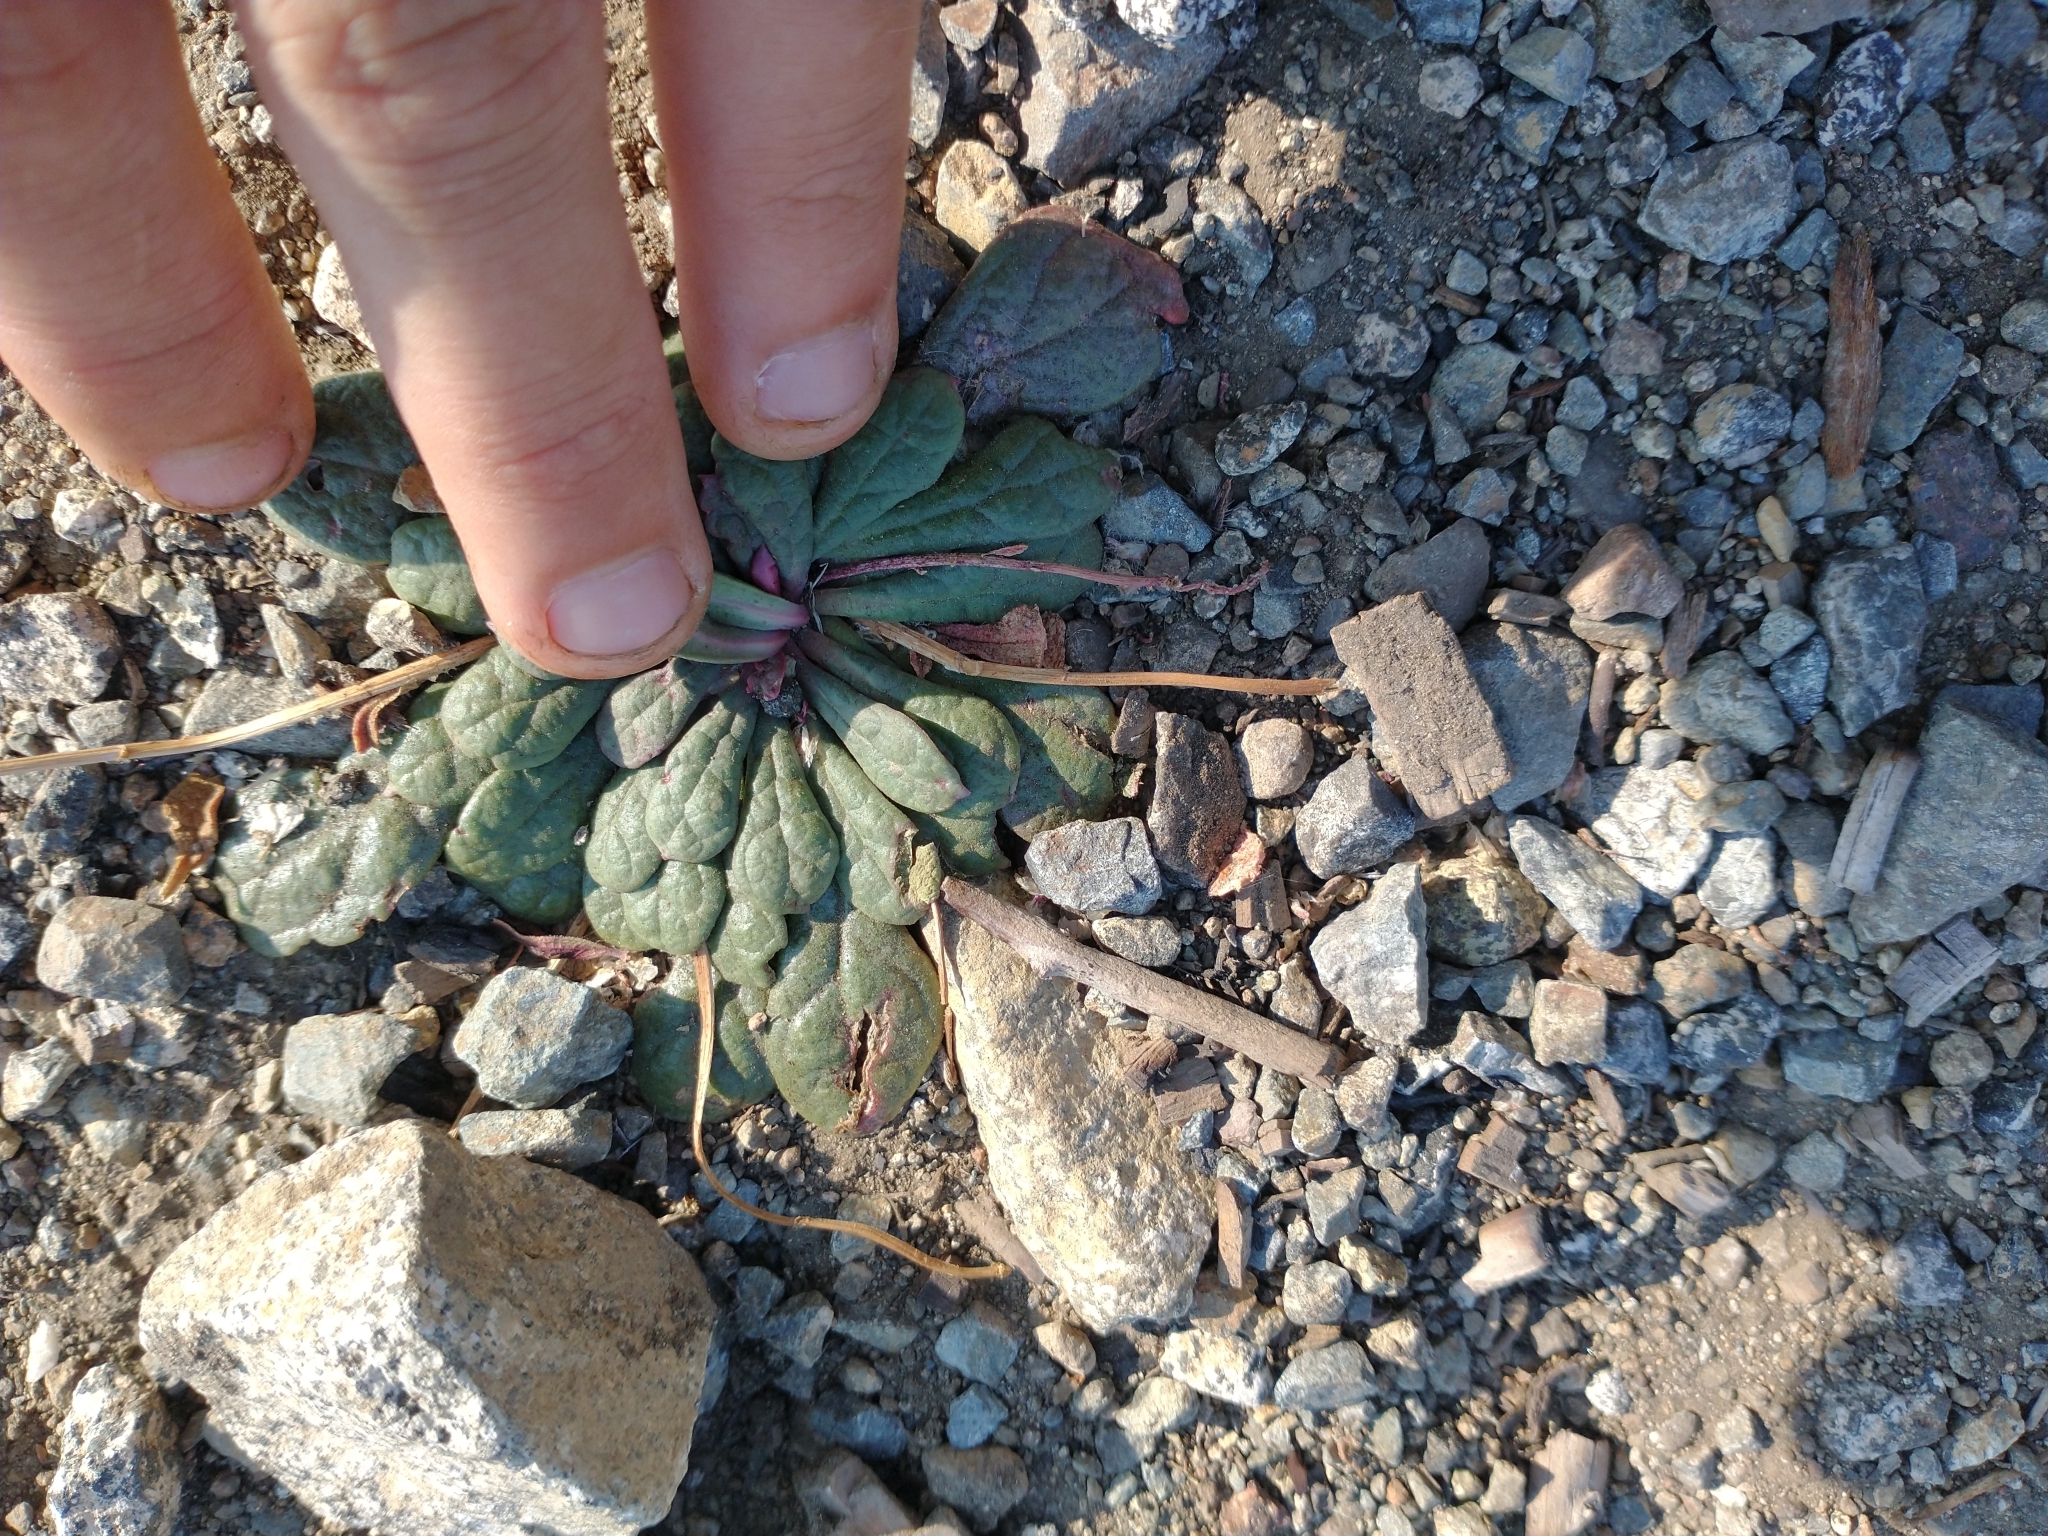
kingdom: Plantae
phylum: Tracheophyta
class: Magnoliopsida
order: Caryophyllales
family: Montiaceae
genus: Calyptridium
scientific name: Calyptridium monospermum
